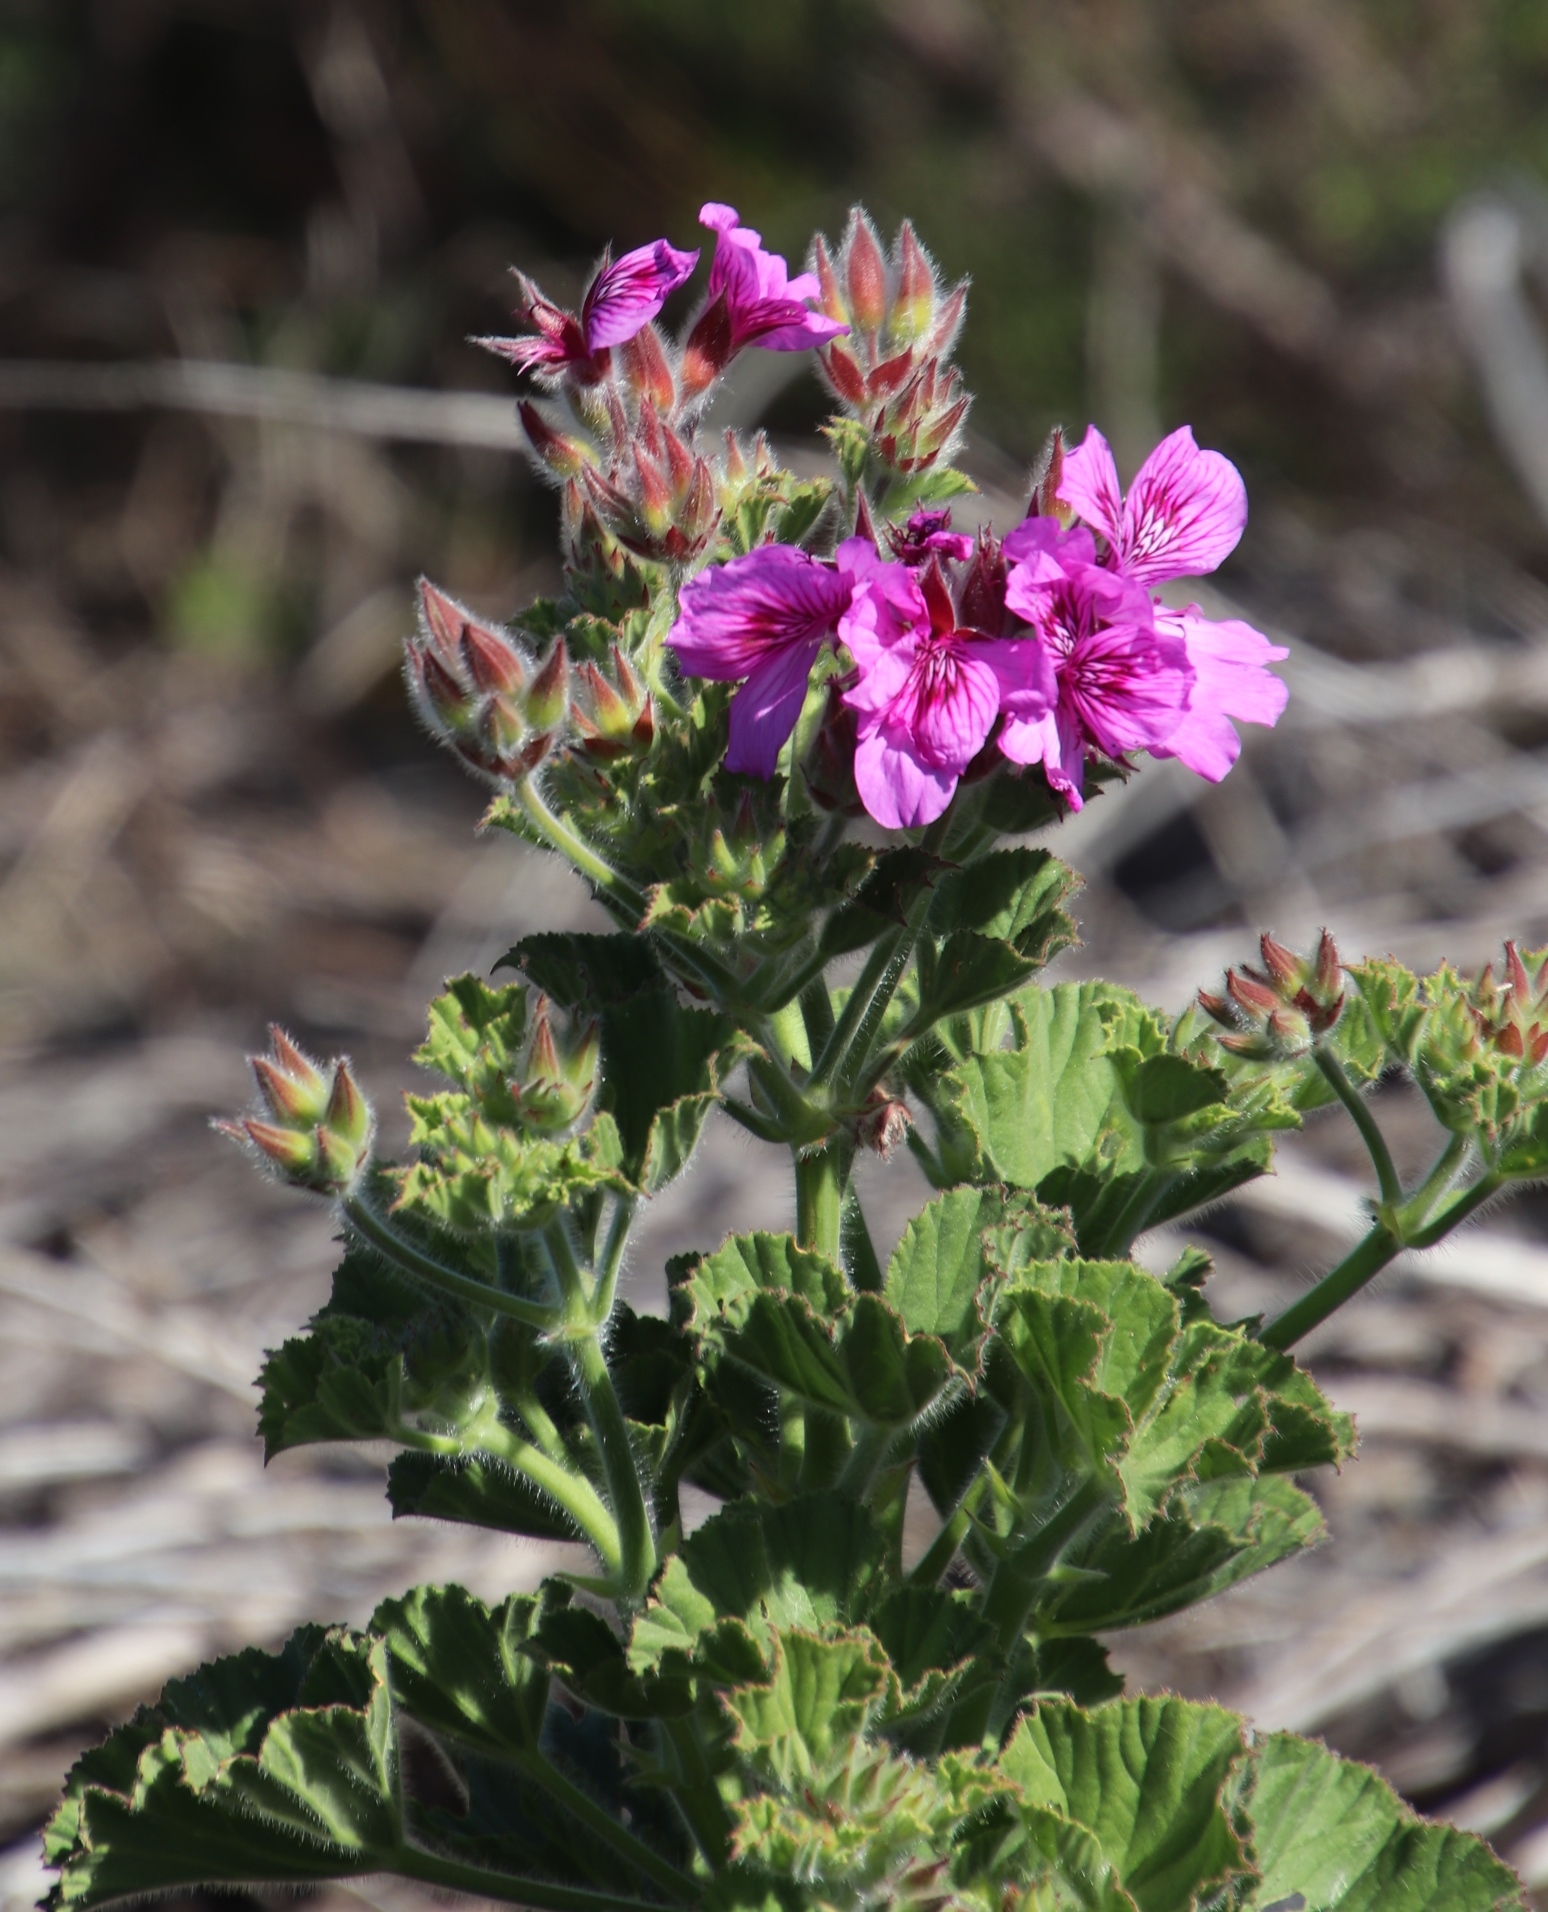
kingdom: Plantae
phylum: Tracheophyta
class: Magnoliopsida
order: Geraniales
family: Geraniaceae
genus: Pelargonium
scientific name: Pelargonium cucullatum
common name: Tree pelargonium
